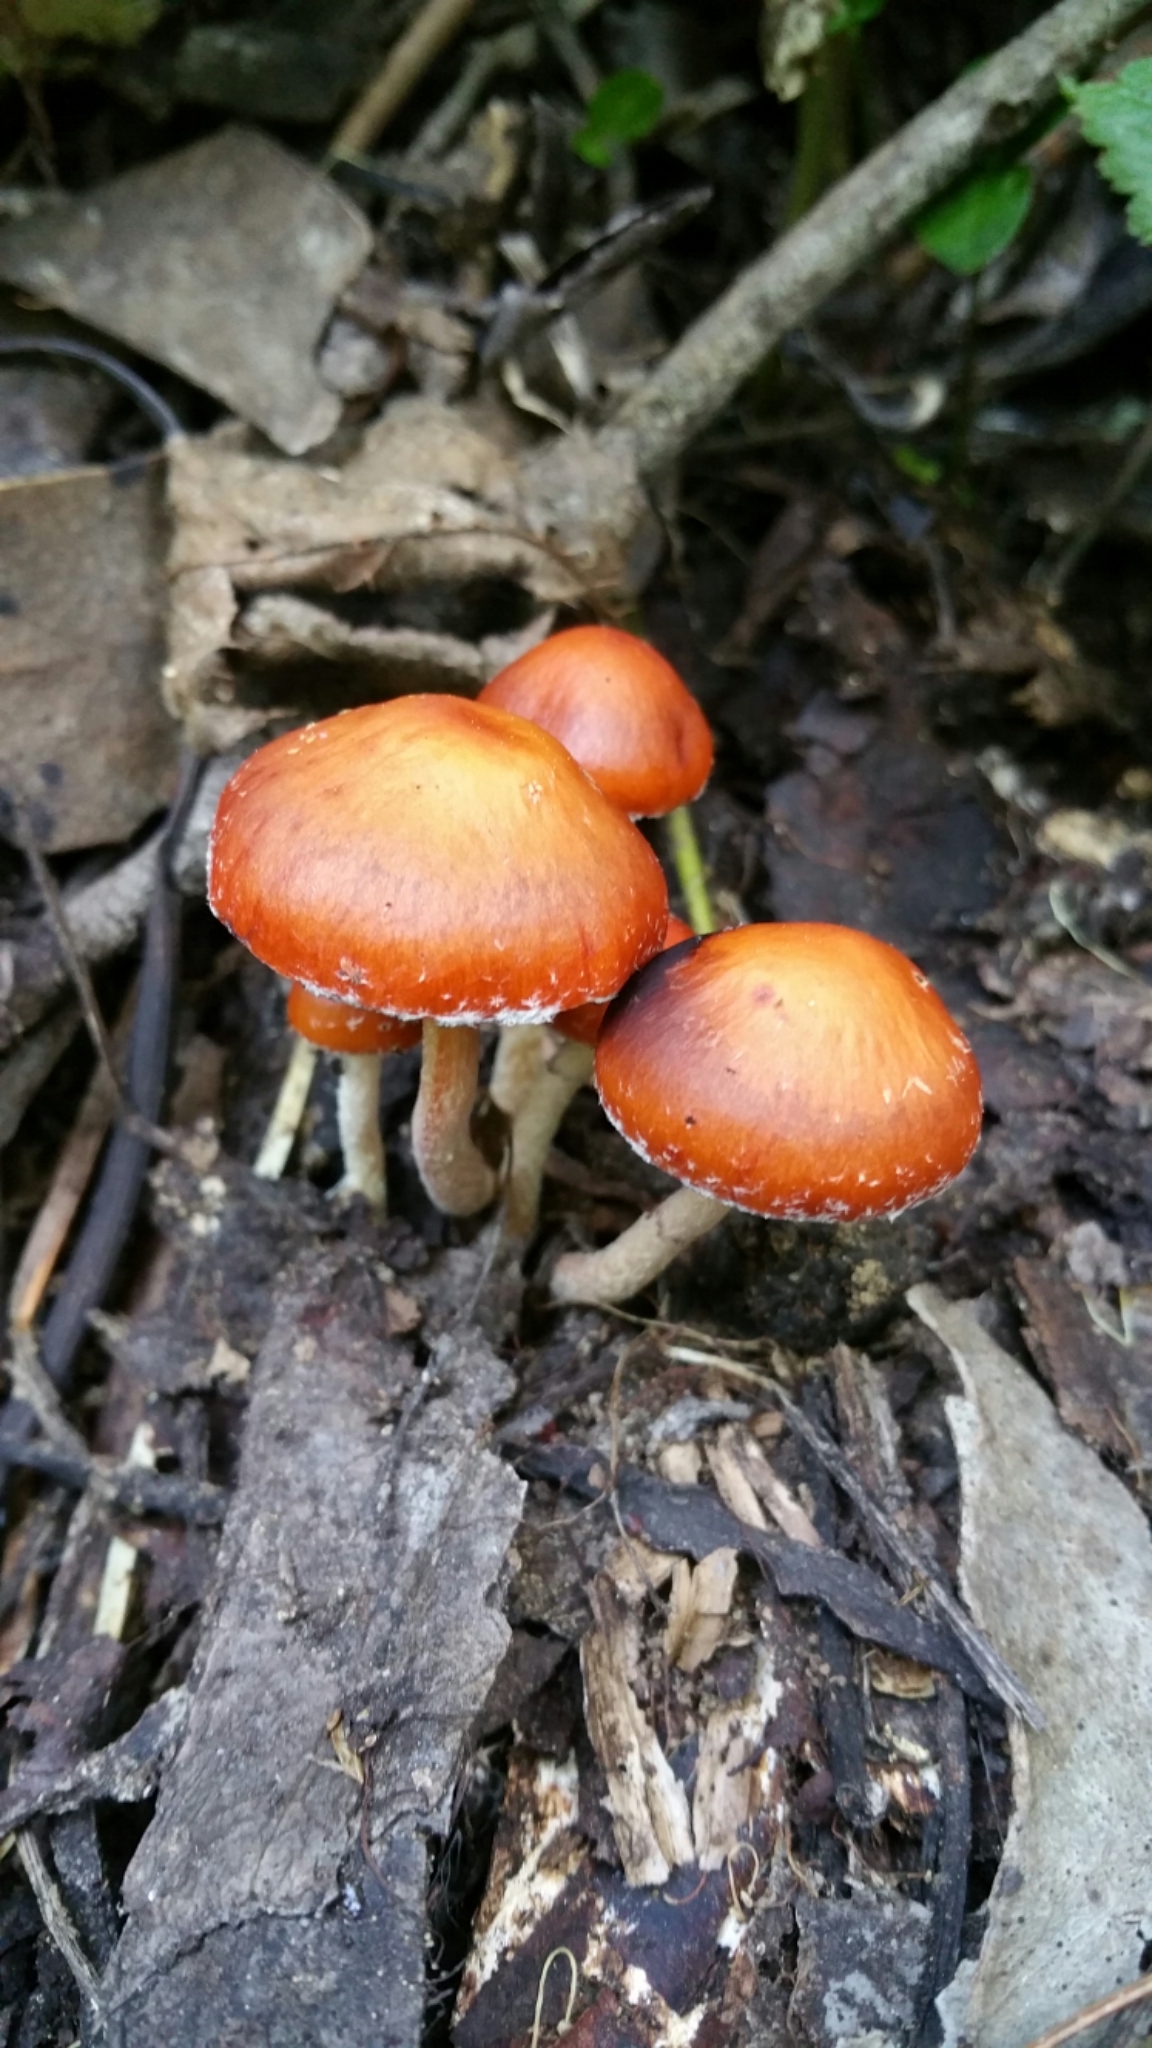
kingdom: Fungi
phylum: Basidiomycota
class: Agaricomycetes
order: Agaricales
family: Strophariaceae
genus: Leratiomyces
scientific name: Leratiomyces ceres
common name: Redlead roundhead
